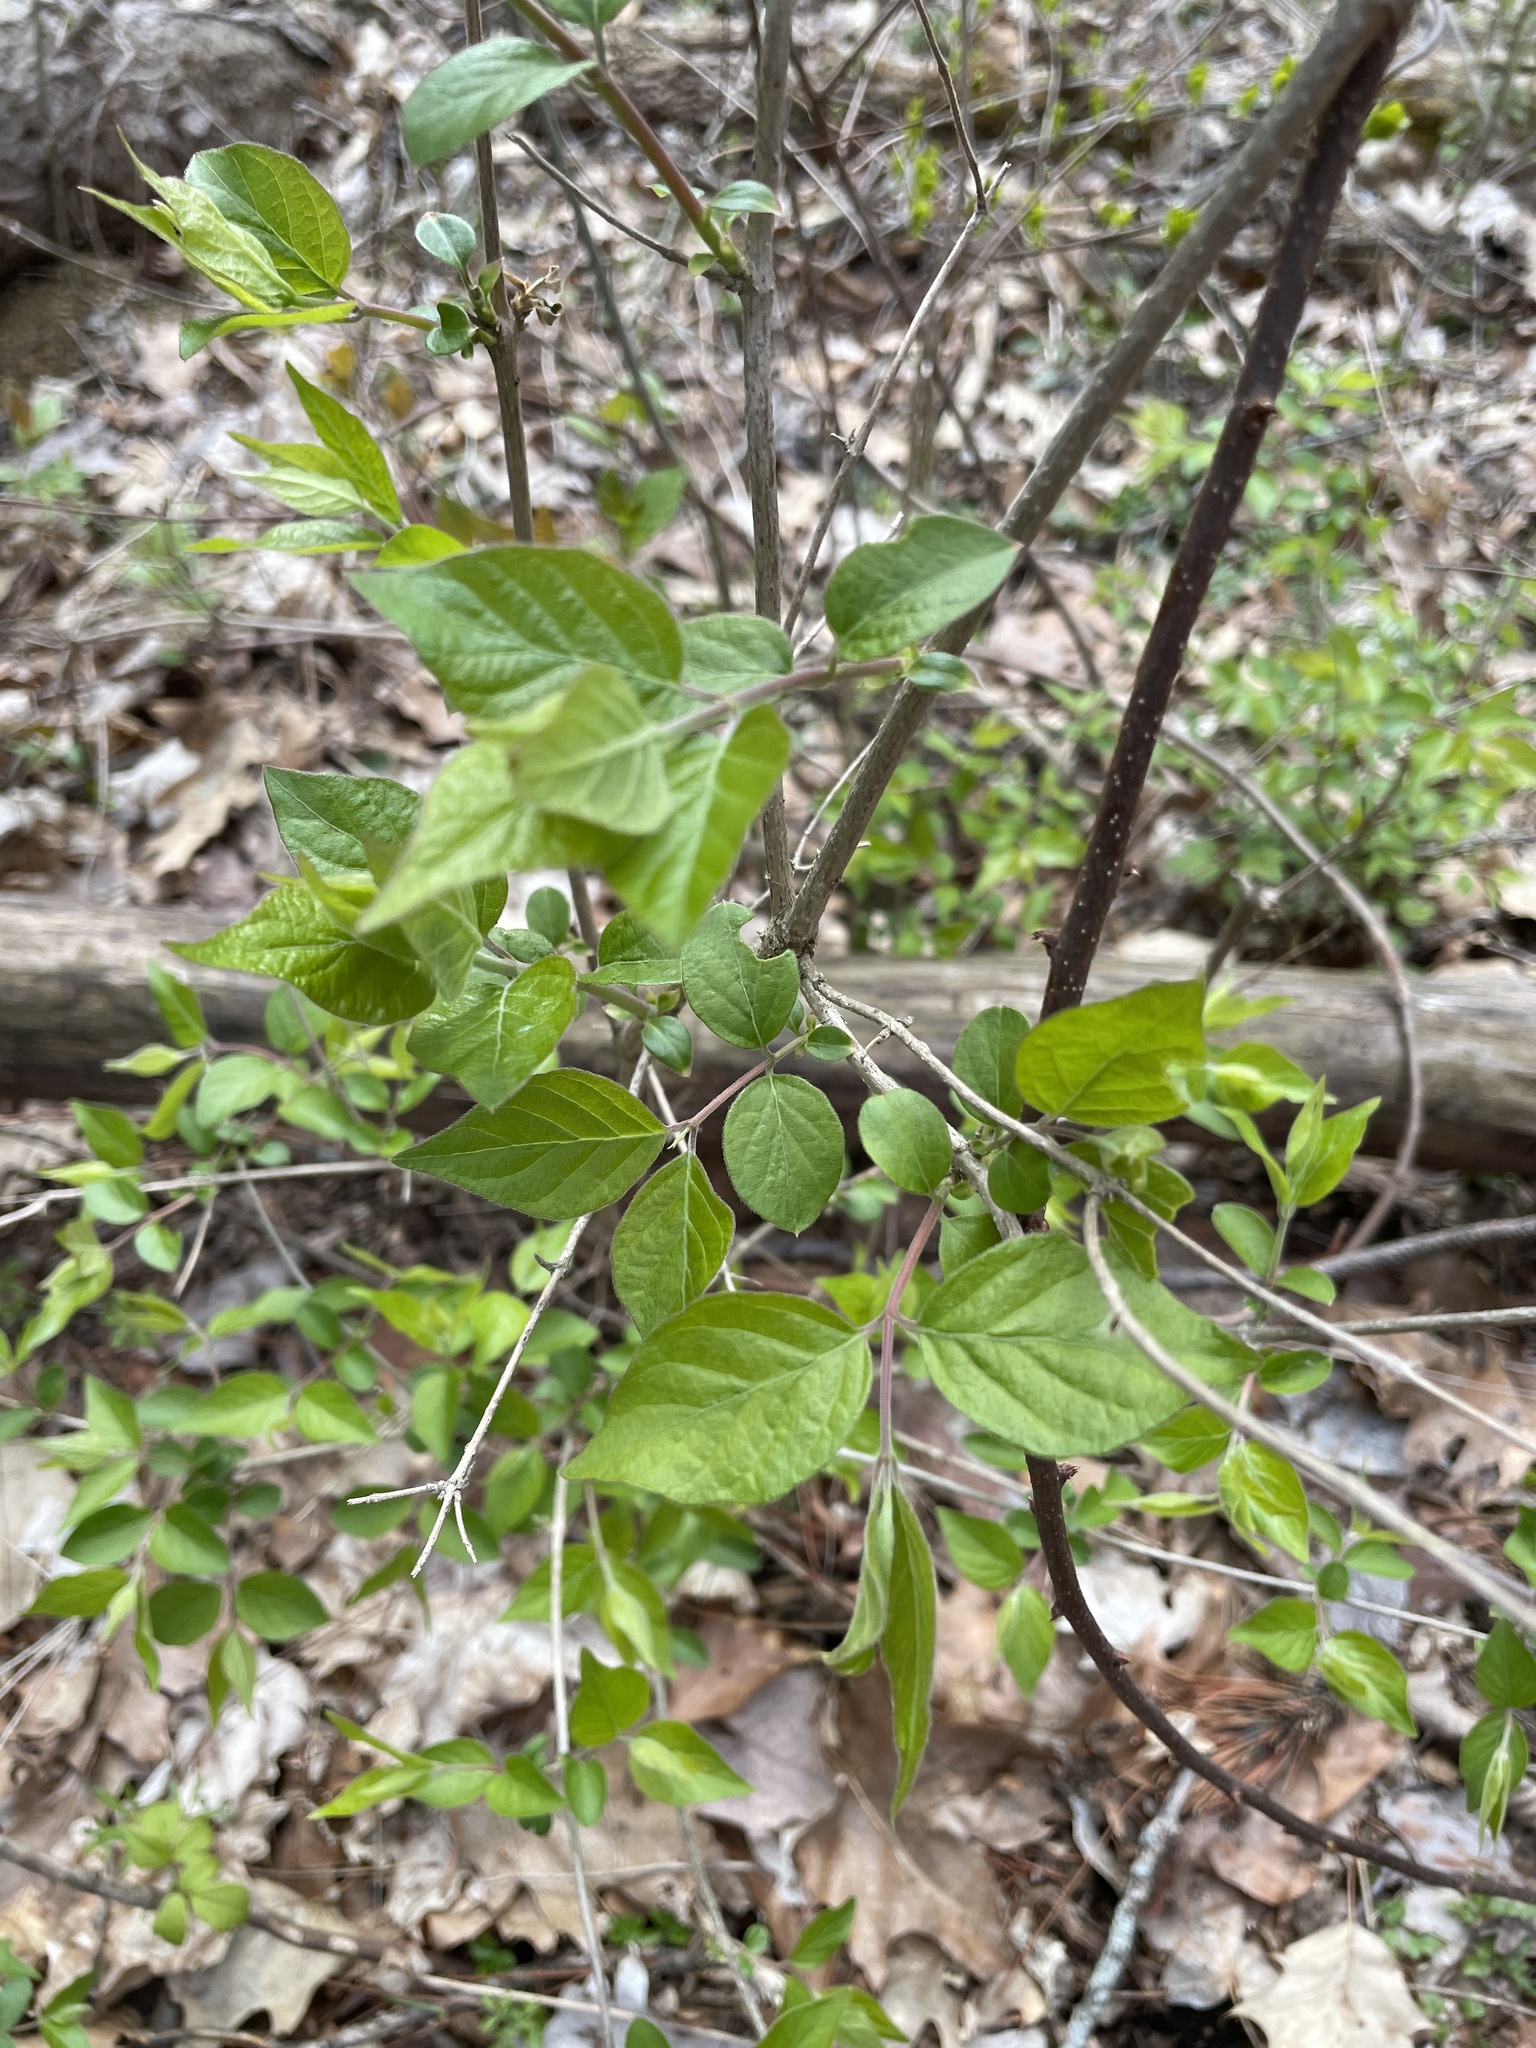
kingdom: Plantae
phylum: Tracheophyta
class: Magnoliopsida
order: Dipsacales
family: Caprifoliaceae
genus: Lonicera
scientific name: Lonicera maackii
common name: Amur honeysuckle
